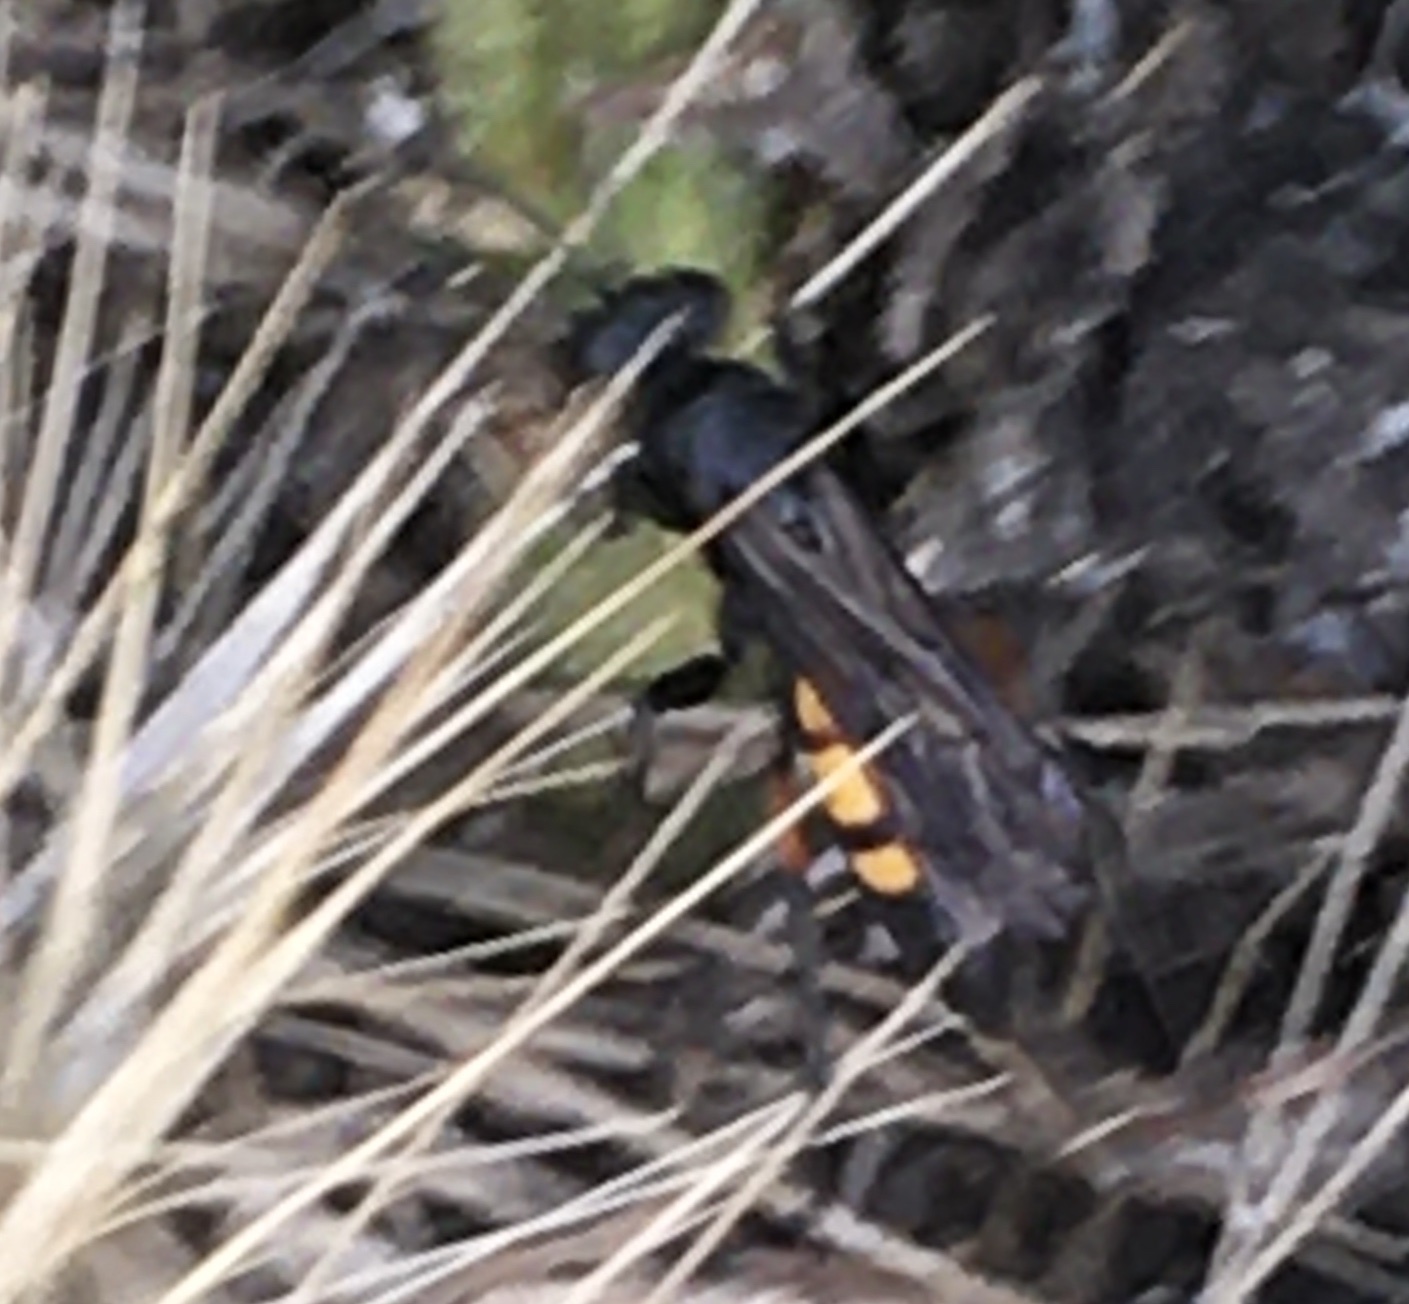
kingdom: Animalia
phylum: Arthropoda
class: Insecta
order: Hymenoptera
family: Pompilidae
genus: Anoplius
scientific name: Anoplius viaticus
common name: Black banded spider wasp
